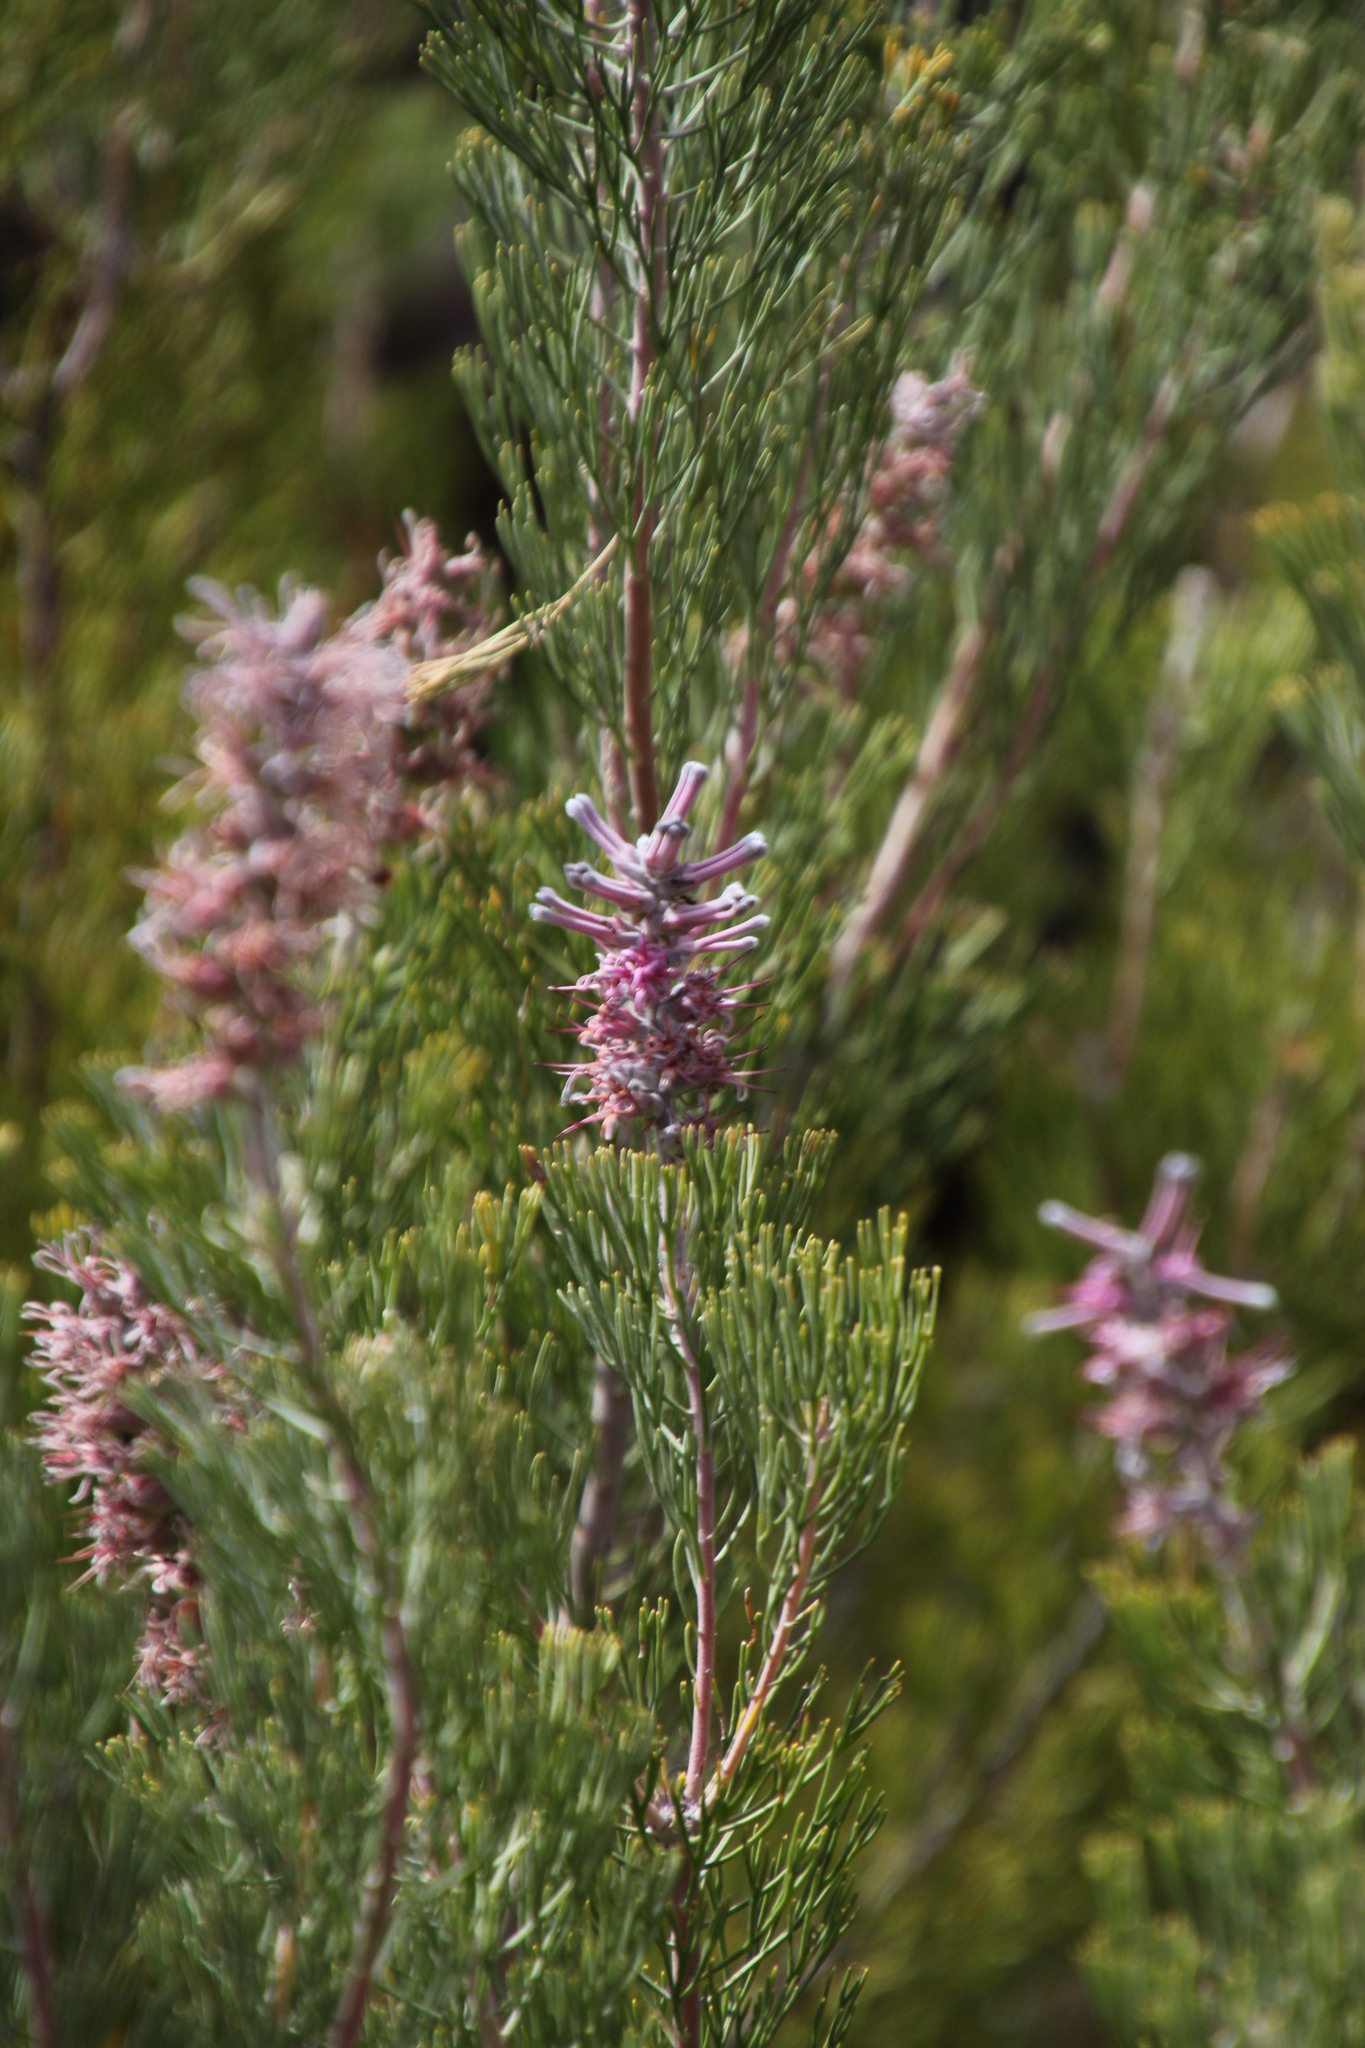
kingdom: Plantae
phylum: Tracheophyta
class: Magnoliopsida
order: Proteales
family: Proteaceae
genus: Paranomus
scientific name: Paranomus bracteolaris
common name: Bokkeveld tree sceptre
